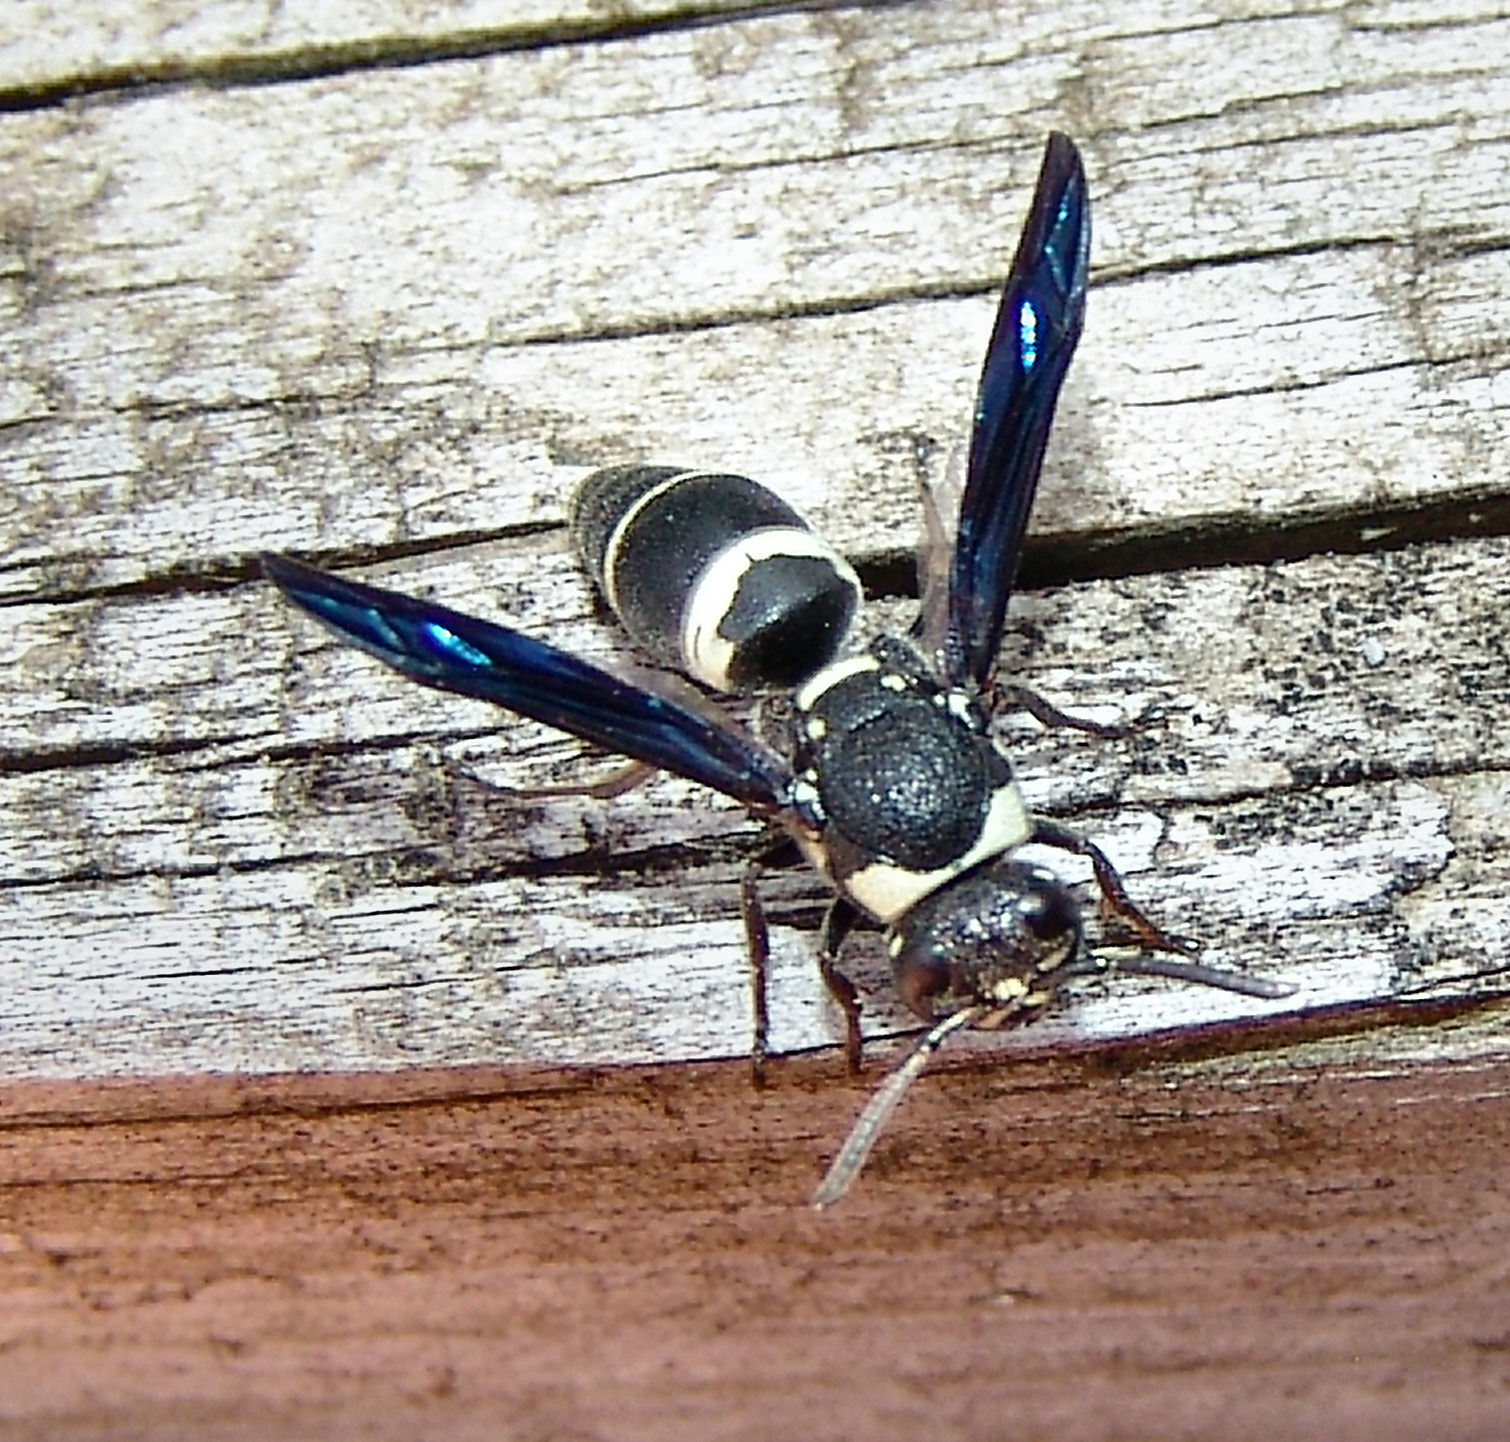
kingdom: Animalia
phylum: Arthropoda
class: Insecta
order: Hymenoptera
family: Eumenidae
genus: Euodynerus
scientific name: Euodynerus megaera
